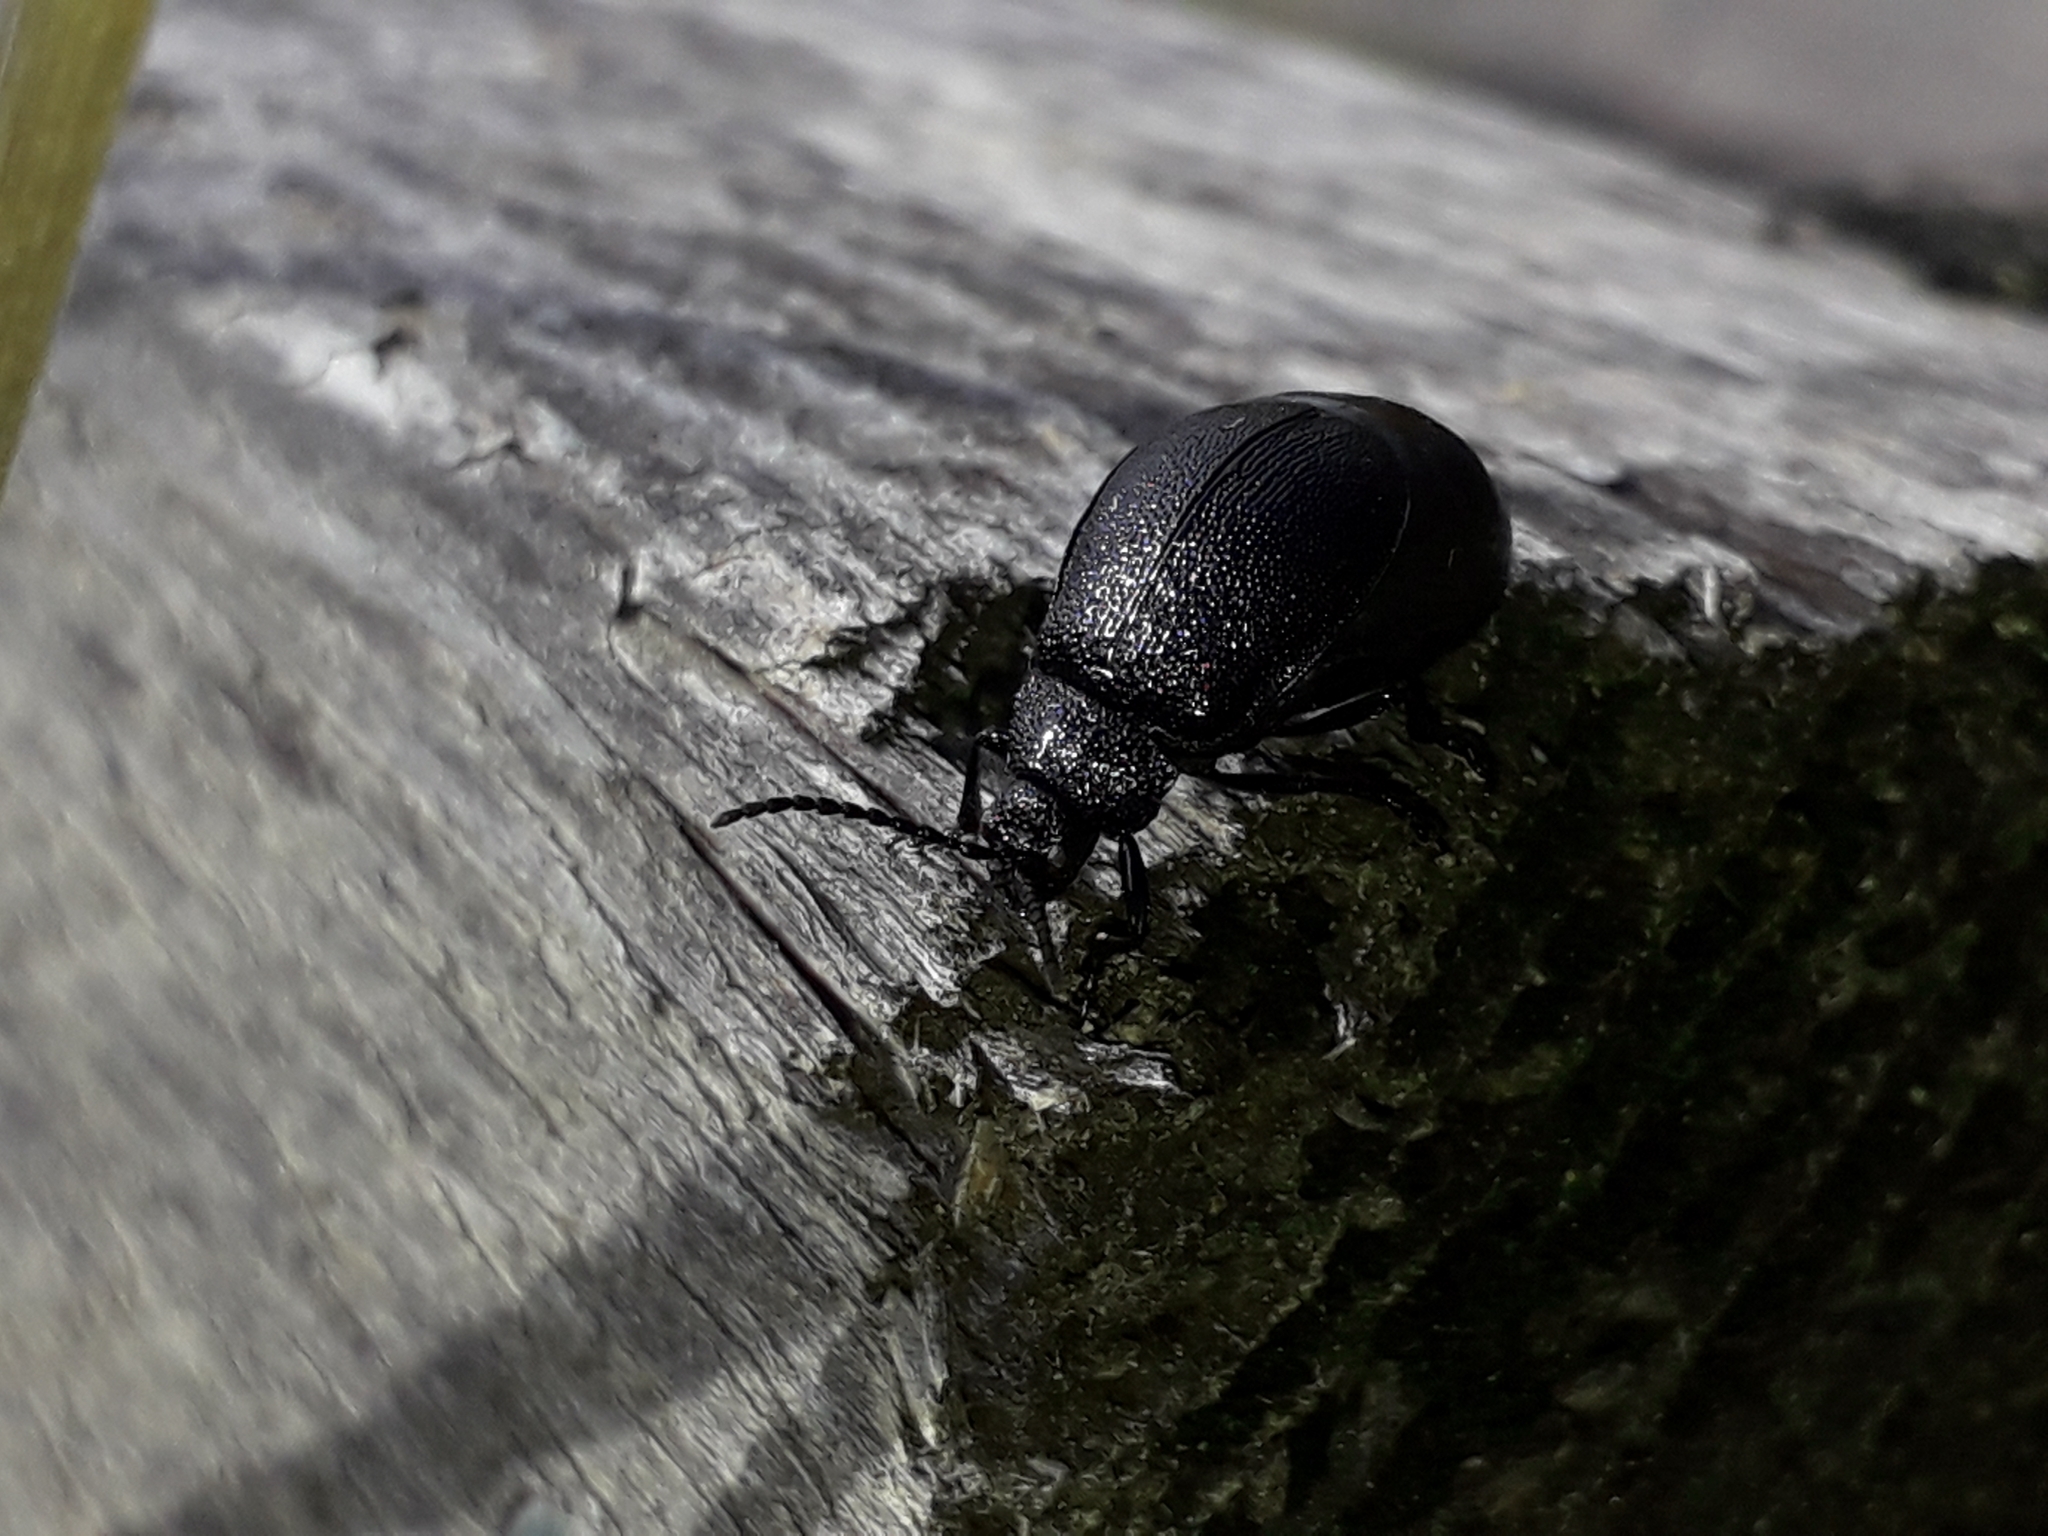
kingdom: Animalia
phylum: Arthropoda
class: Insecta
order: Coleoptera
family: Chrysomelidae
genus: Galeruca
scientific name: Galeruca tanaceti
